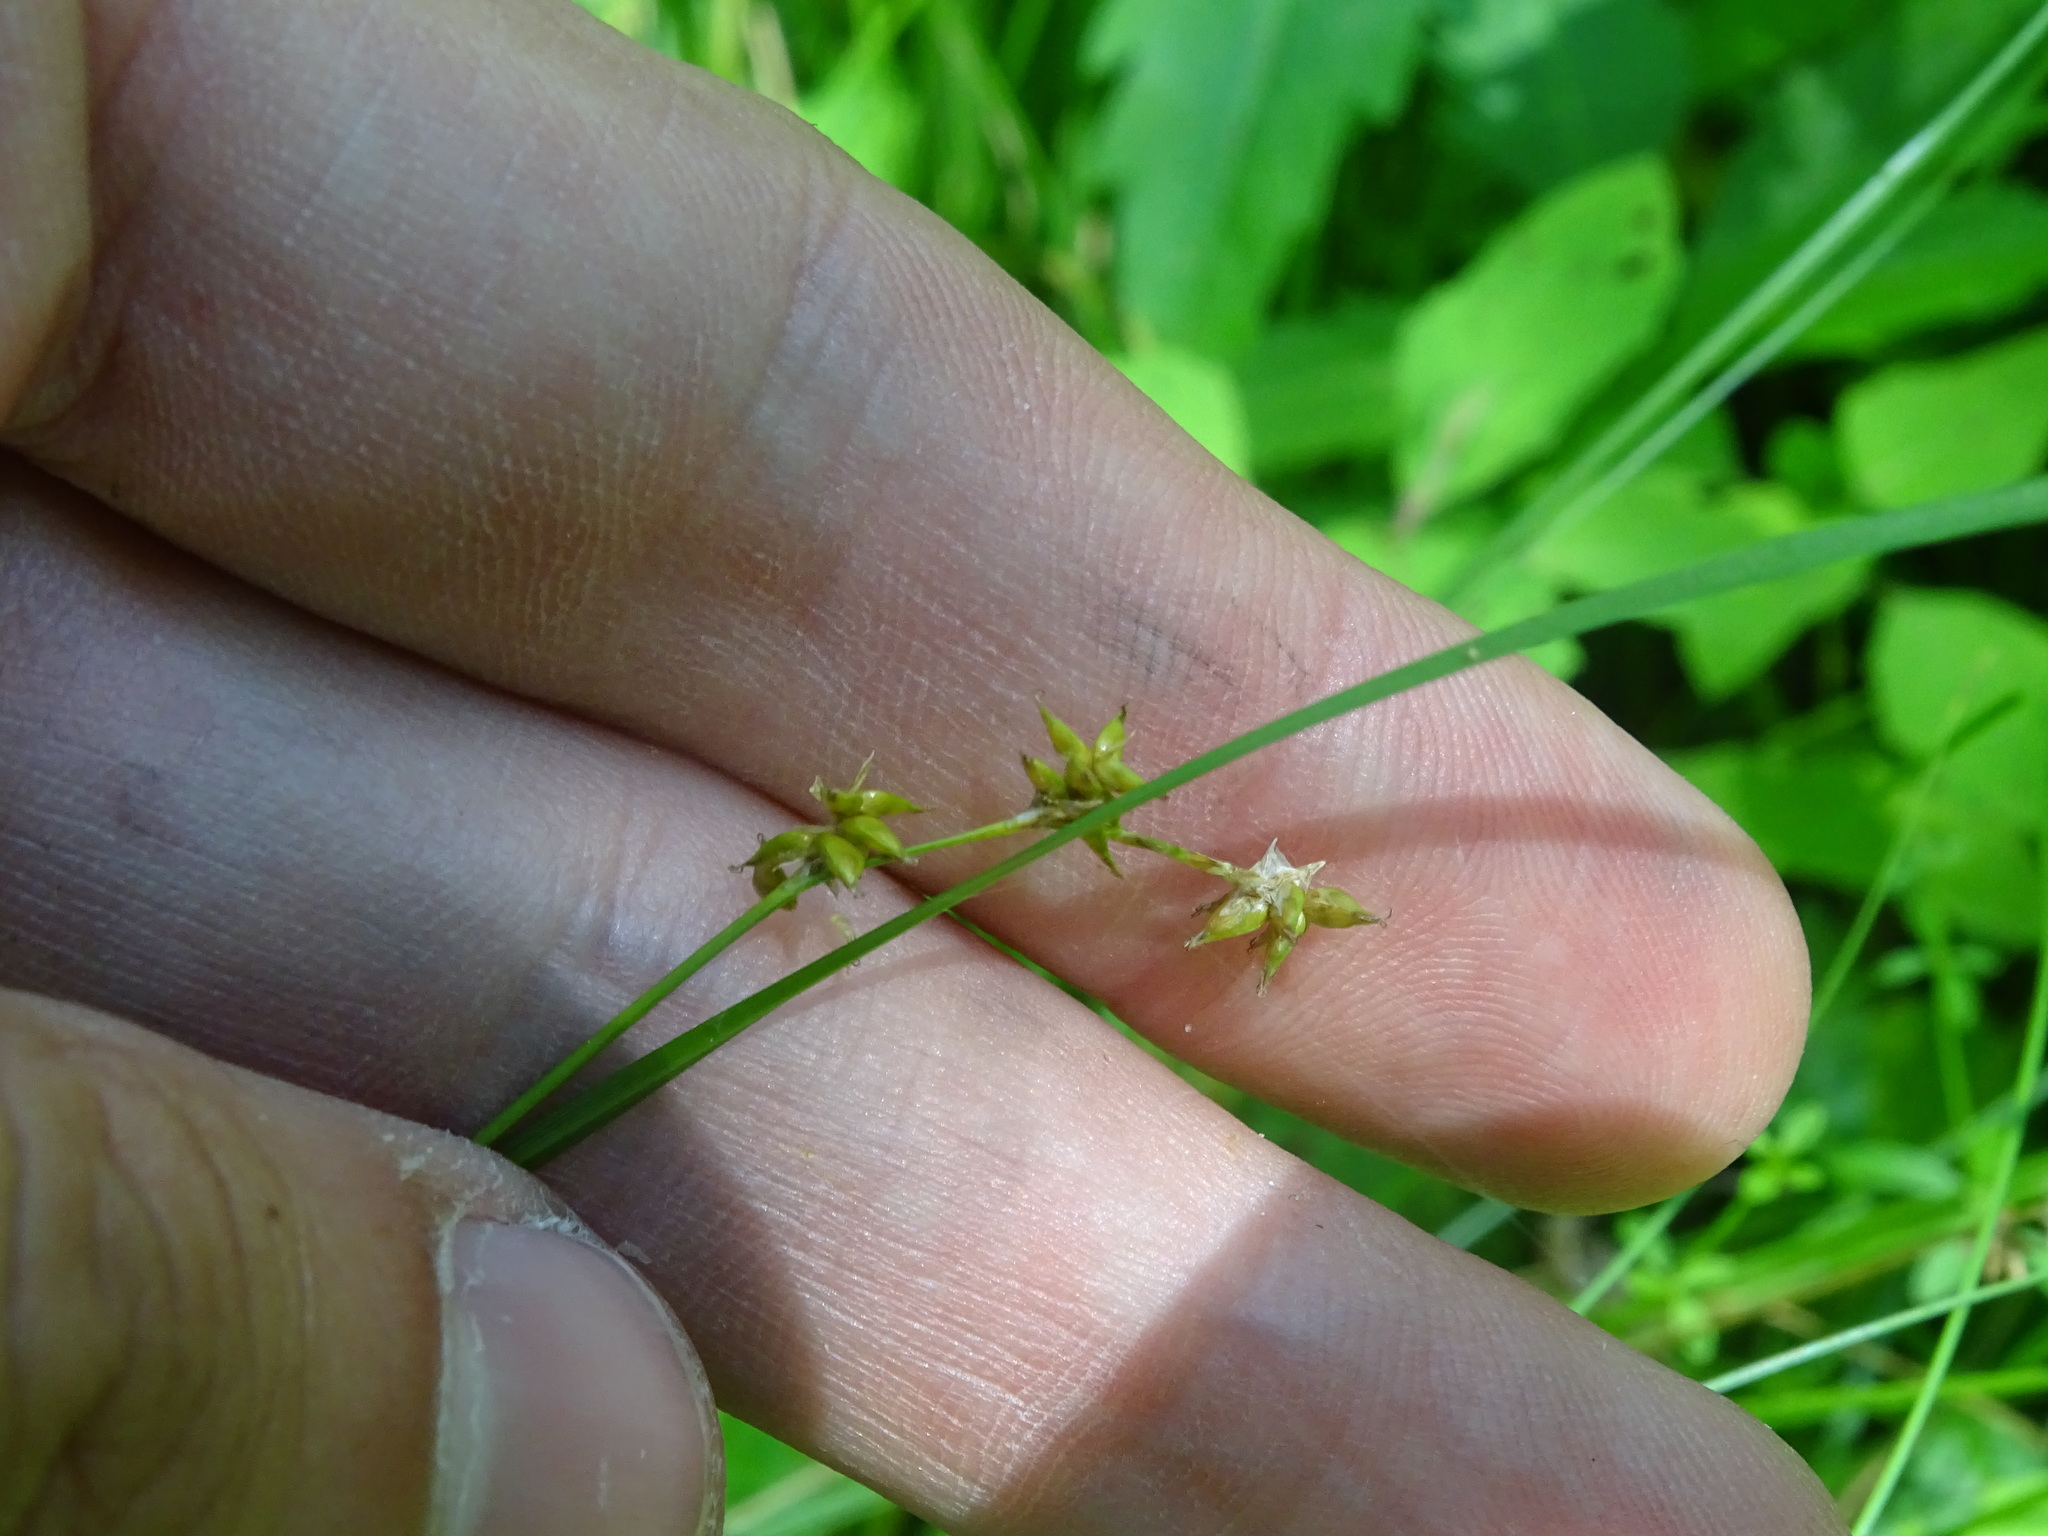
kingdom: Plantae
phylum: Tracheophyta
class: Liliopsida
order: Poales
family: Cyperaceae
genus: Carex
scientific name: Carex interior
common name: Inland sedge
